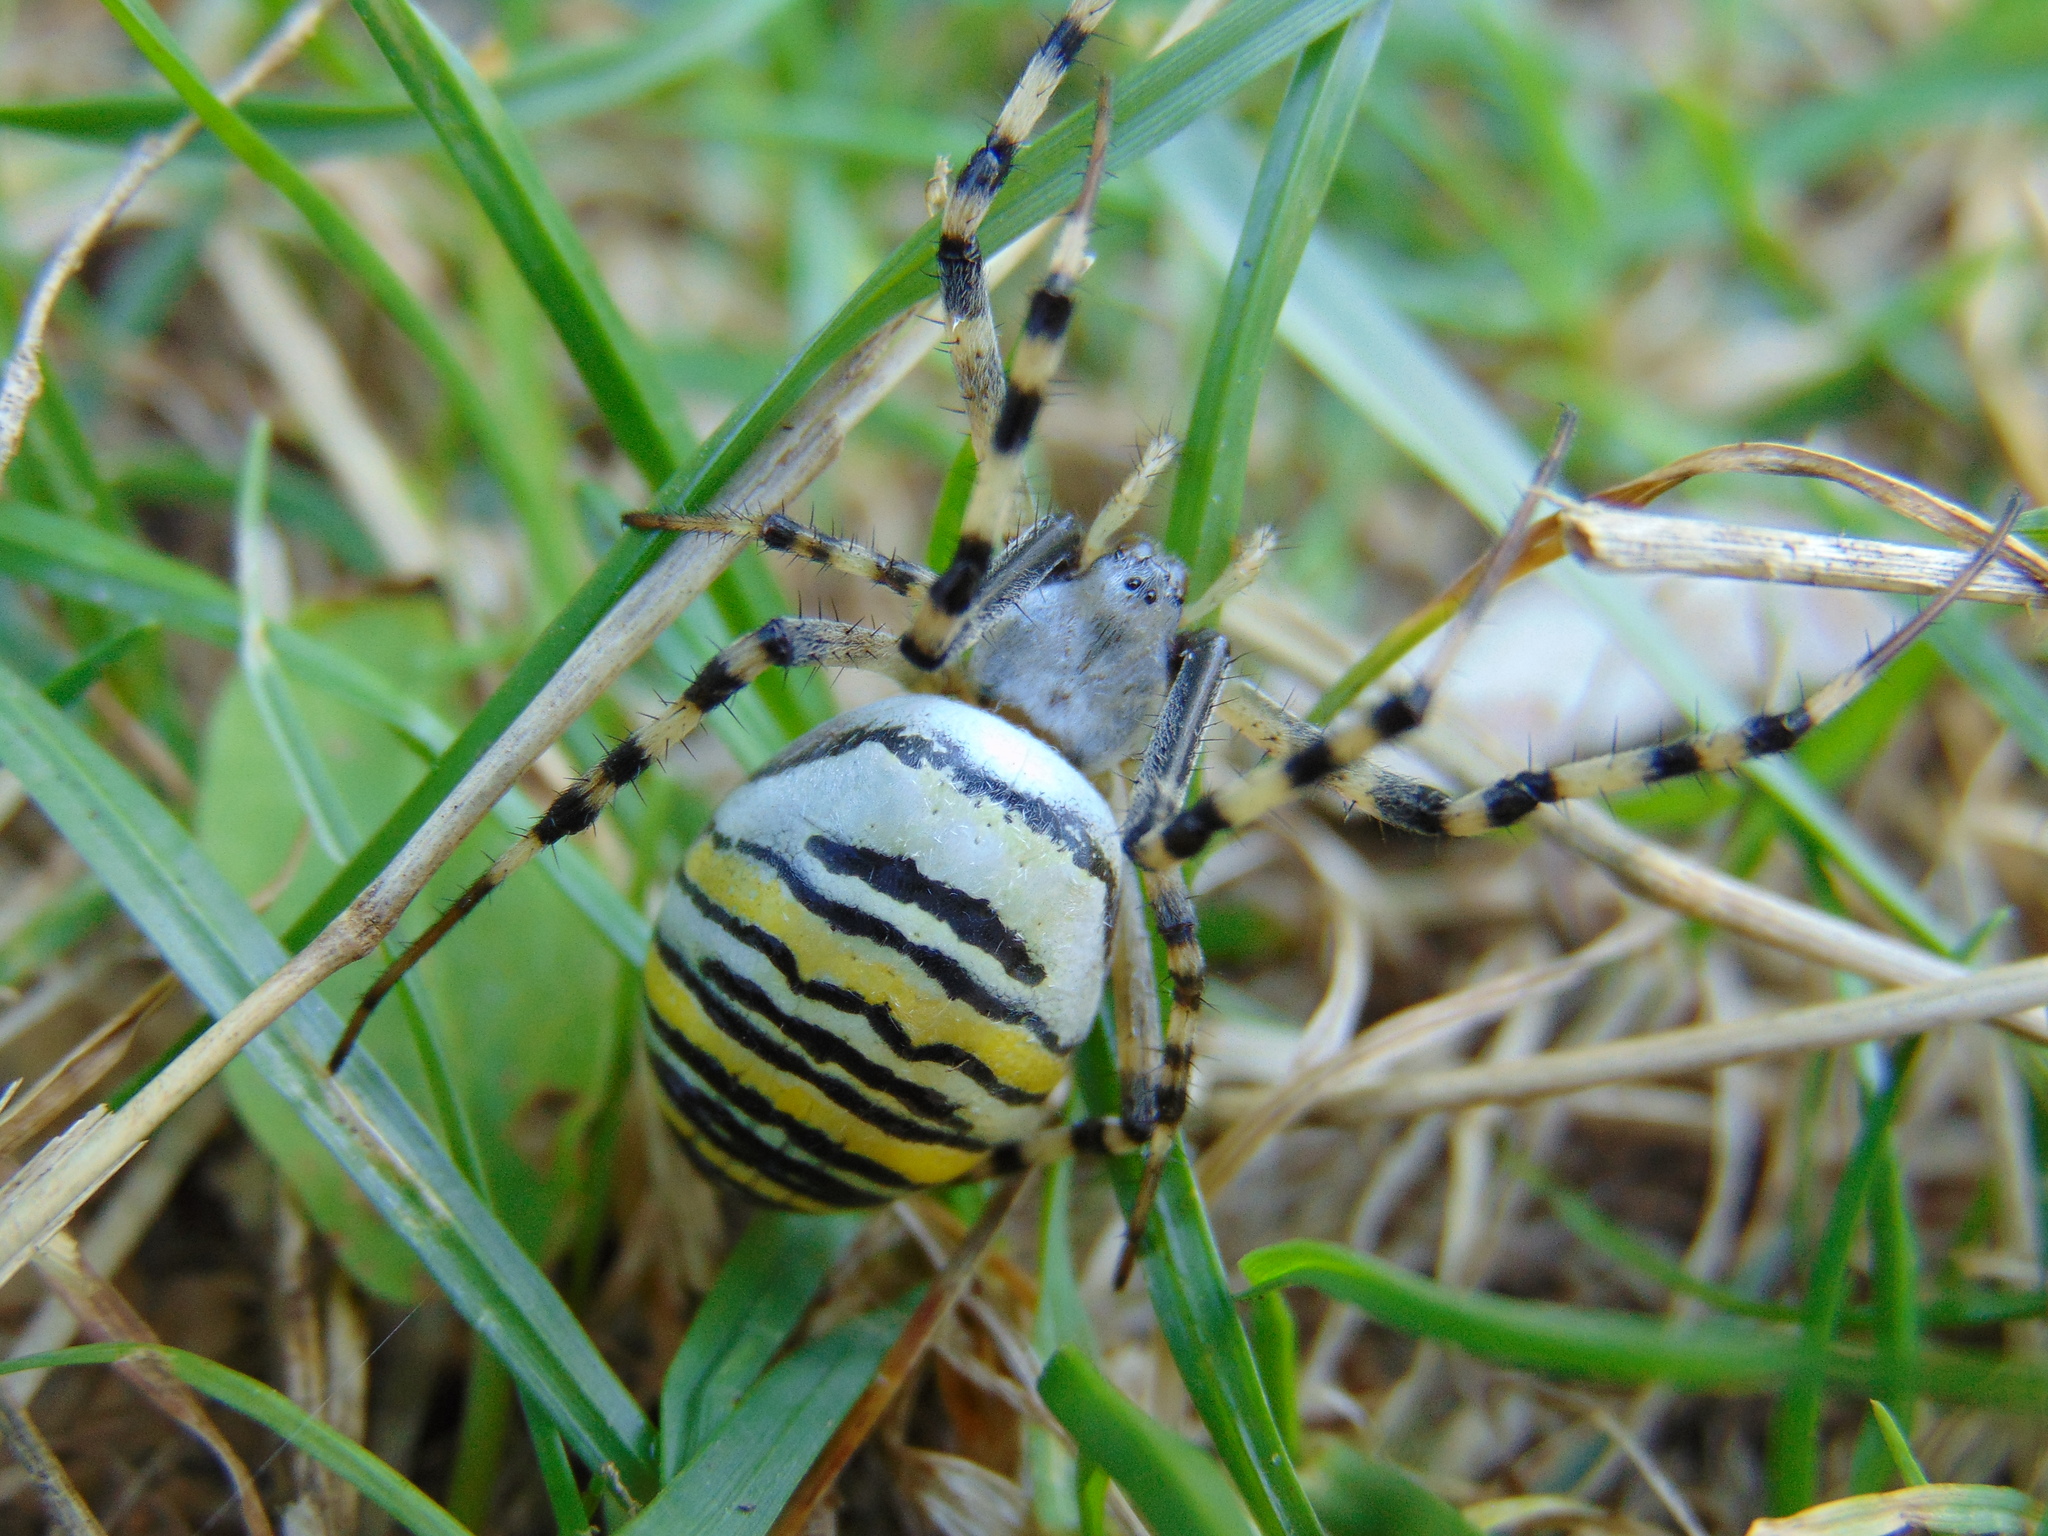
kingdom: Animalia
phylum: Arthropoda
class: Arachnida
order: Araneae
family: Araneidae
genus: Argiope
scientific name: Argiope bruennichi
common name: Wasp spider
